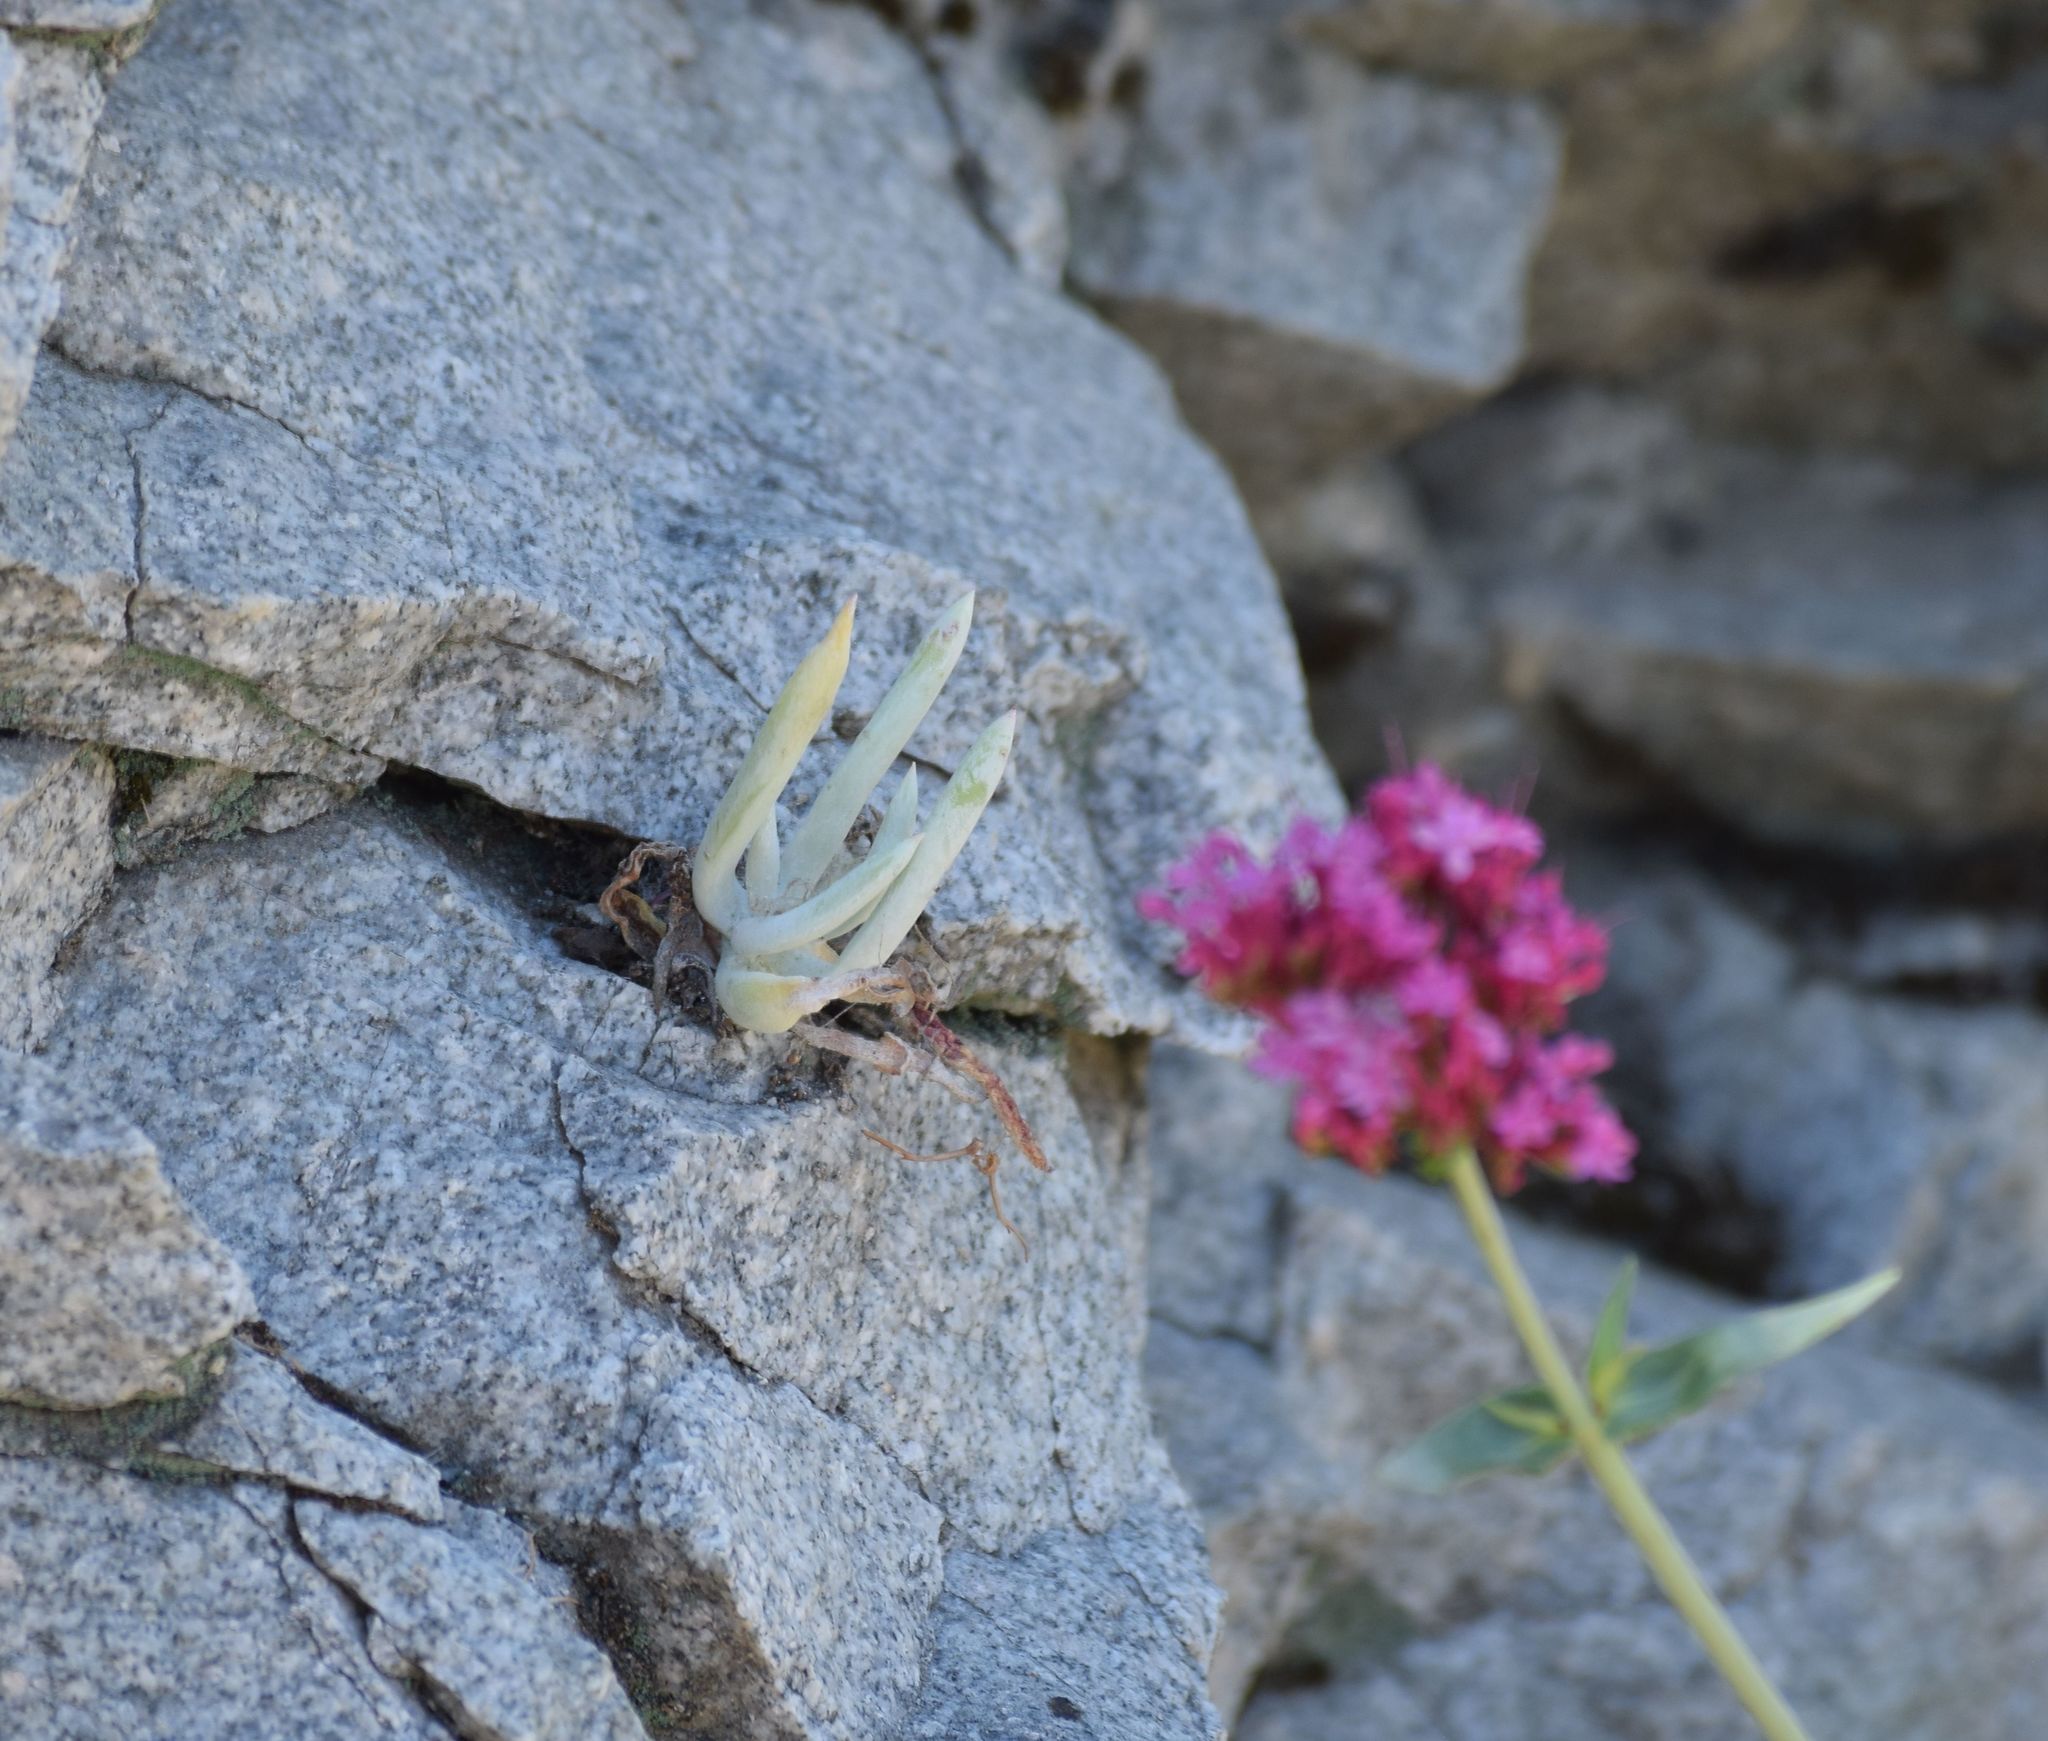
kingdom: Plantae
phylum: Tracheophyta
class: Magnoliopsida
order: Saxifragales
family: Crassulaceae
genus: Dudleya
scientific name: Dudleya densiflora
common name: San gabriel mountains dudleya
